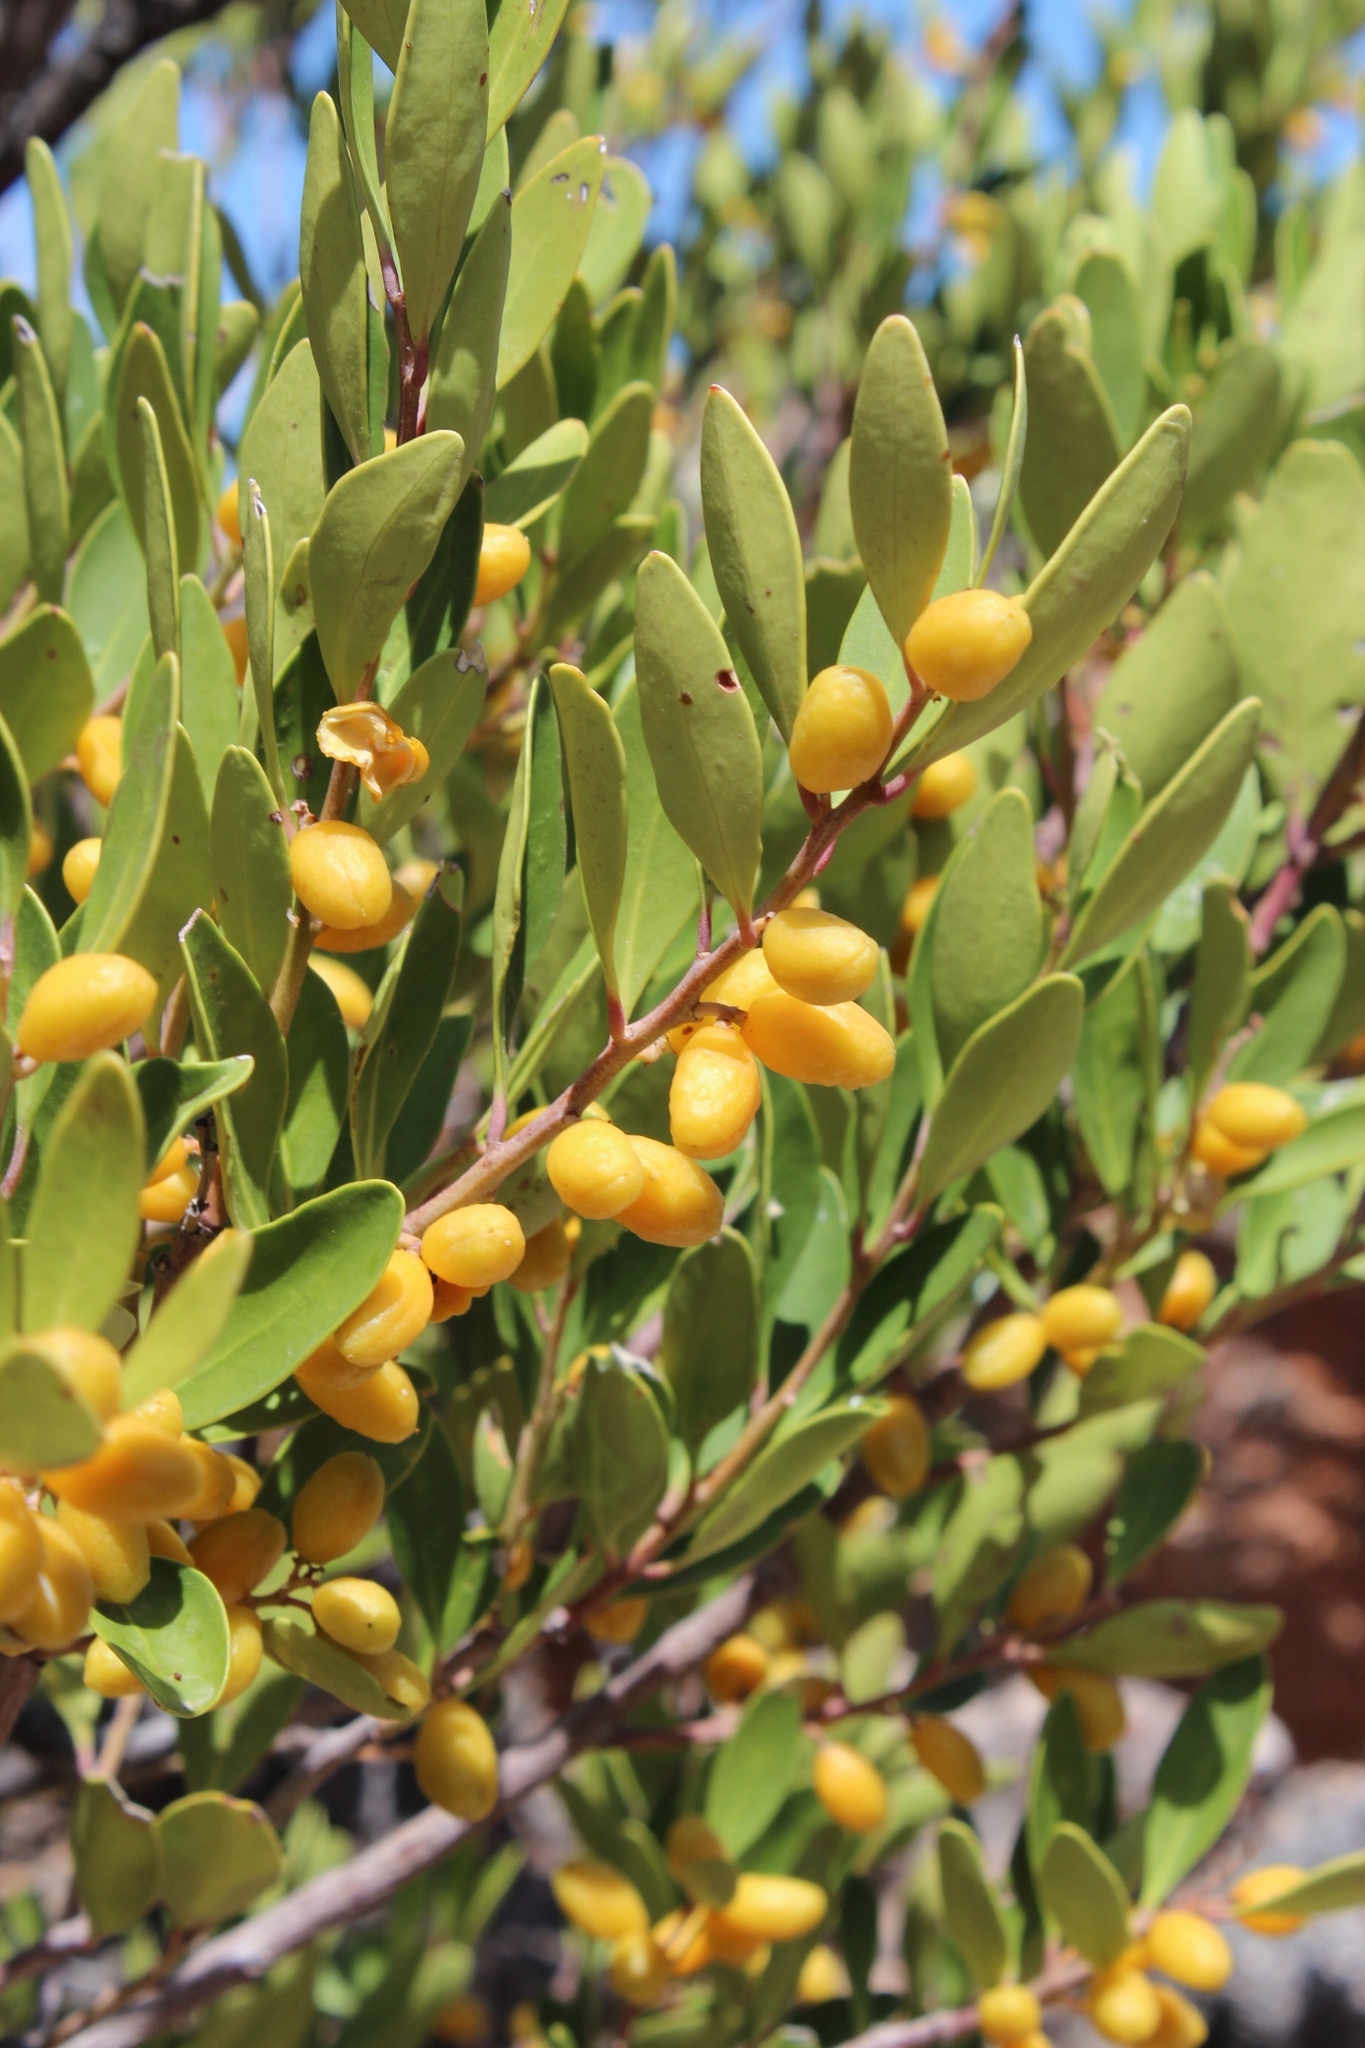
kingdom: Plantae
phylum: Tracheophyta
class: Magnoliopsida
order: Celastrales
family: Celastraceae
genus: Gymnosporia
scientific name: Gymnosporia laurina
